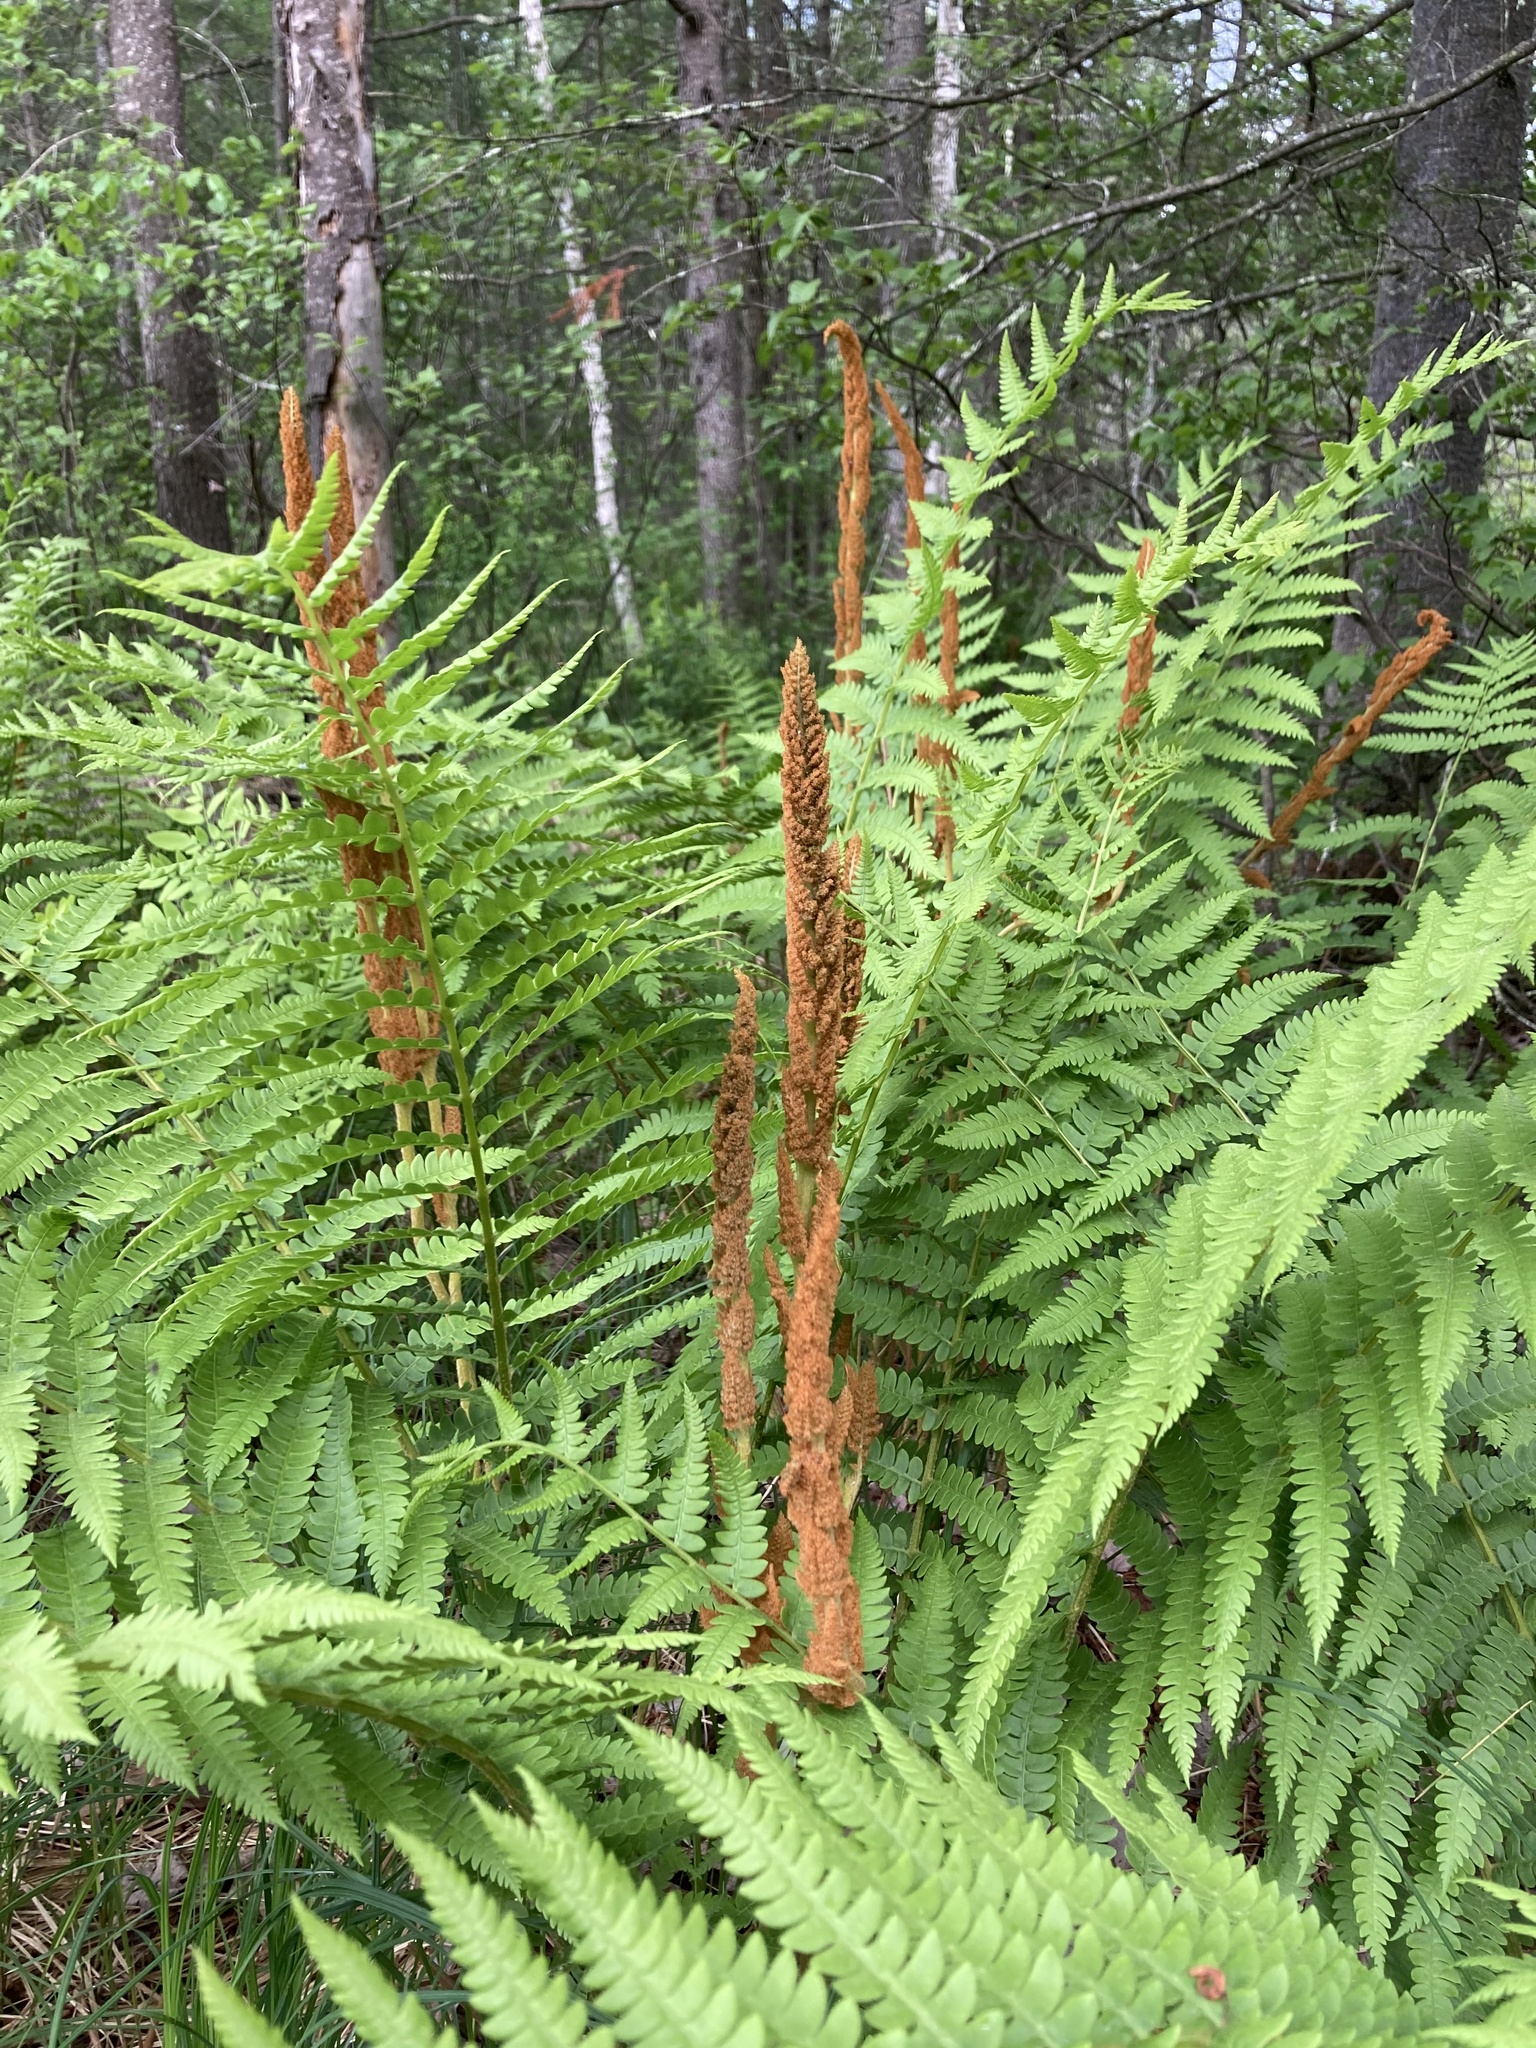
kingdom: Plantae
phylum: Tracheophyta
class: Polypodiopsida
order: Osmundales
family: Osmundaceae
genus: Osmundastrum
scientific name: Osmundastrum cinnamomeum
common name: Cinnamon fern
